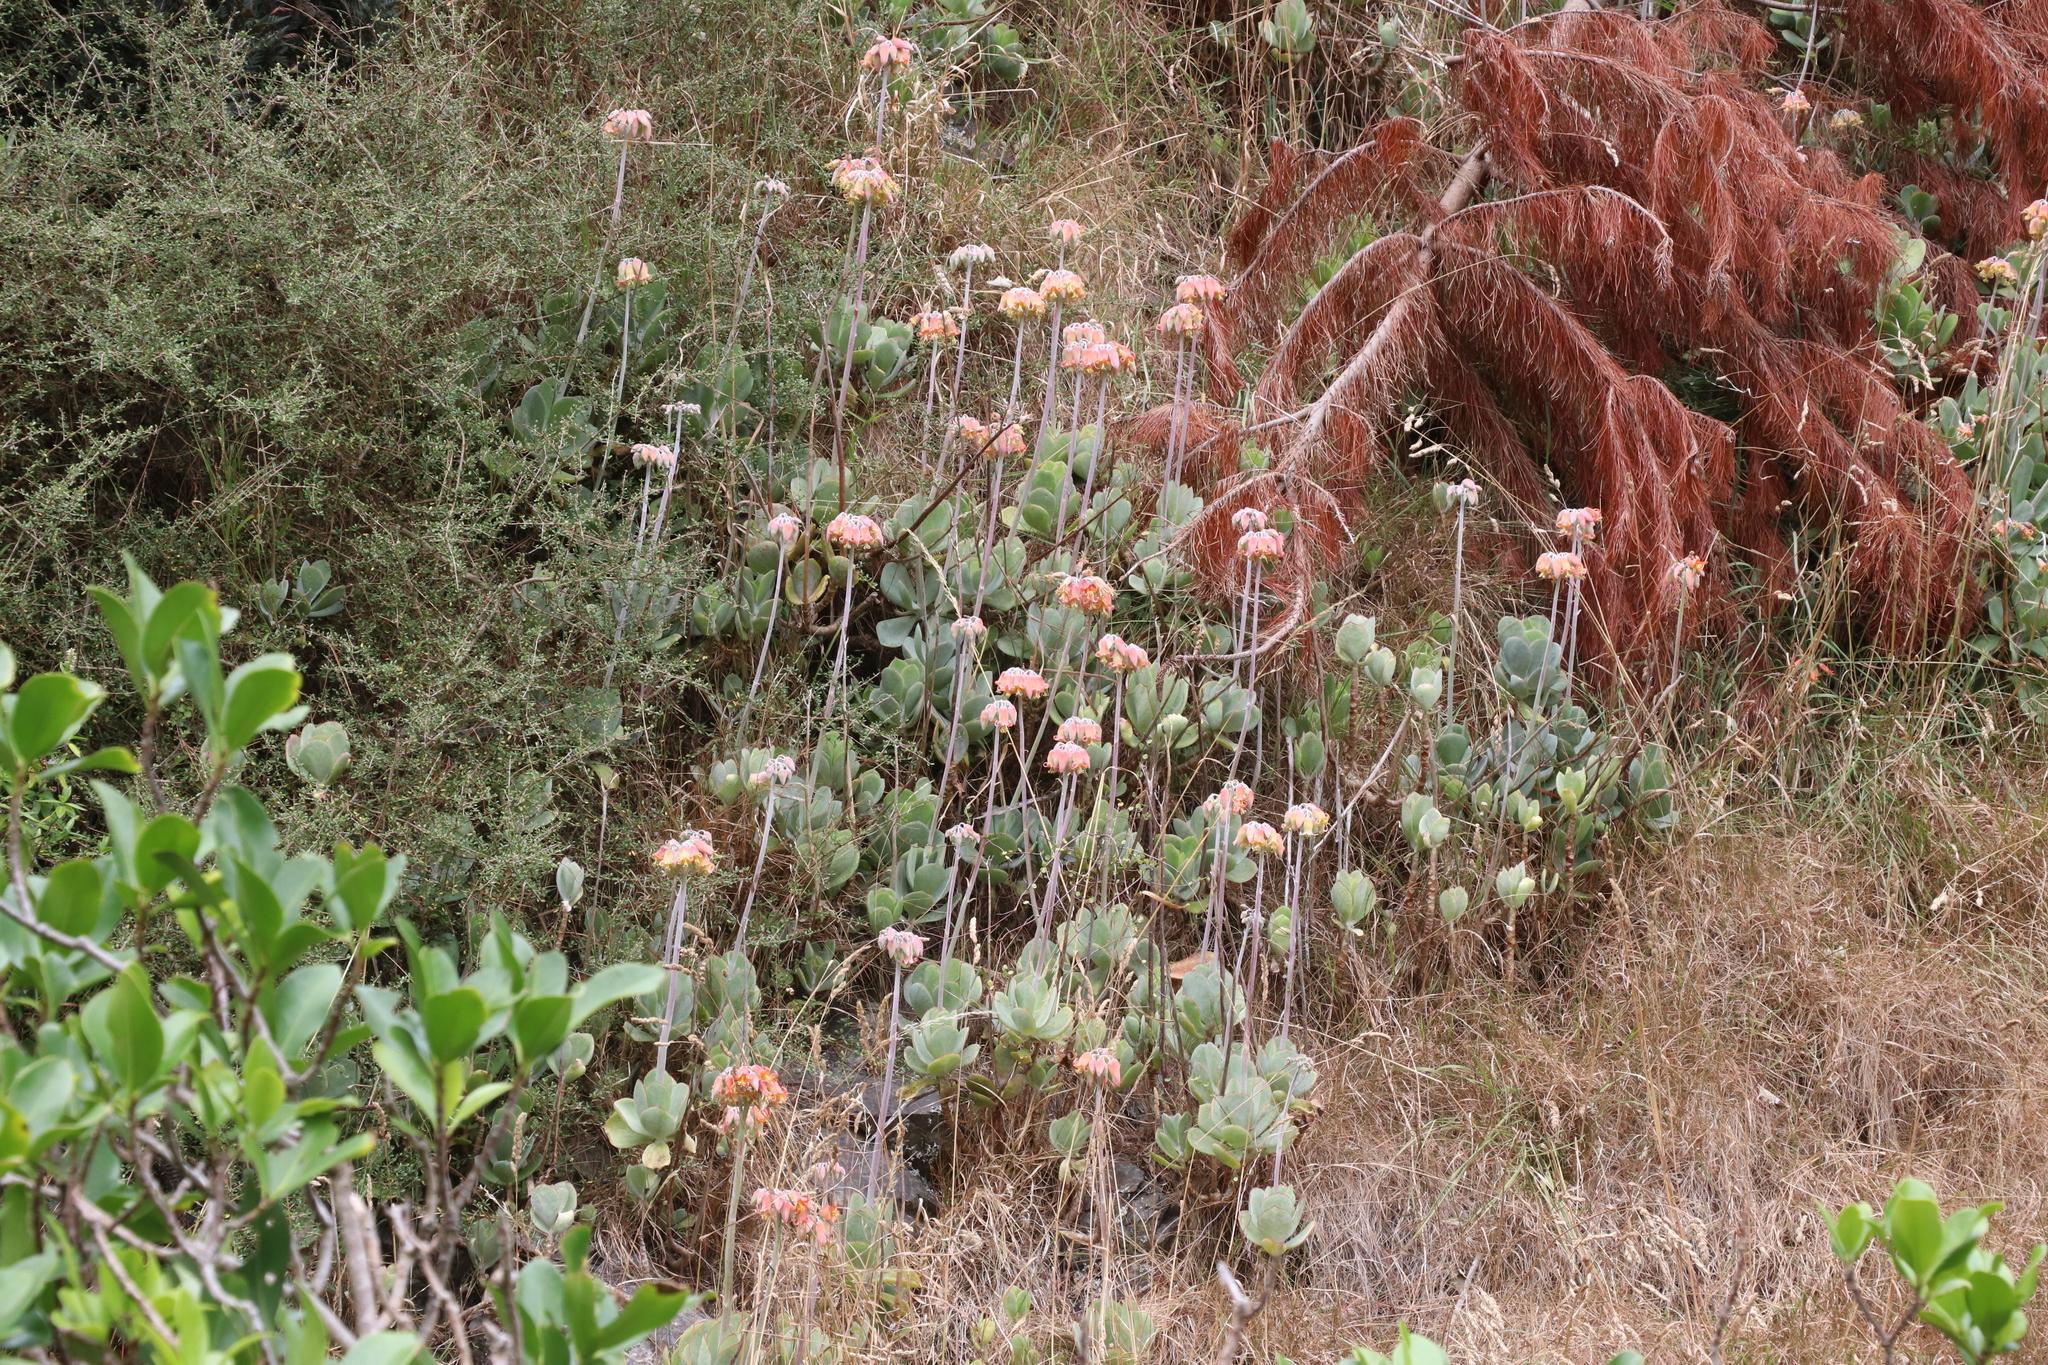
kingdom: Plantae
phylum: Tracheophyta
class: Magnoliopsida
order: Saxifragales
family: Crassulaceae
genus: Cotyledon
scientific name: Cotyledon orbiculata
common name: Pig's ear
